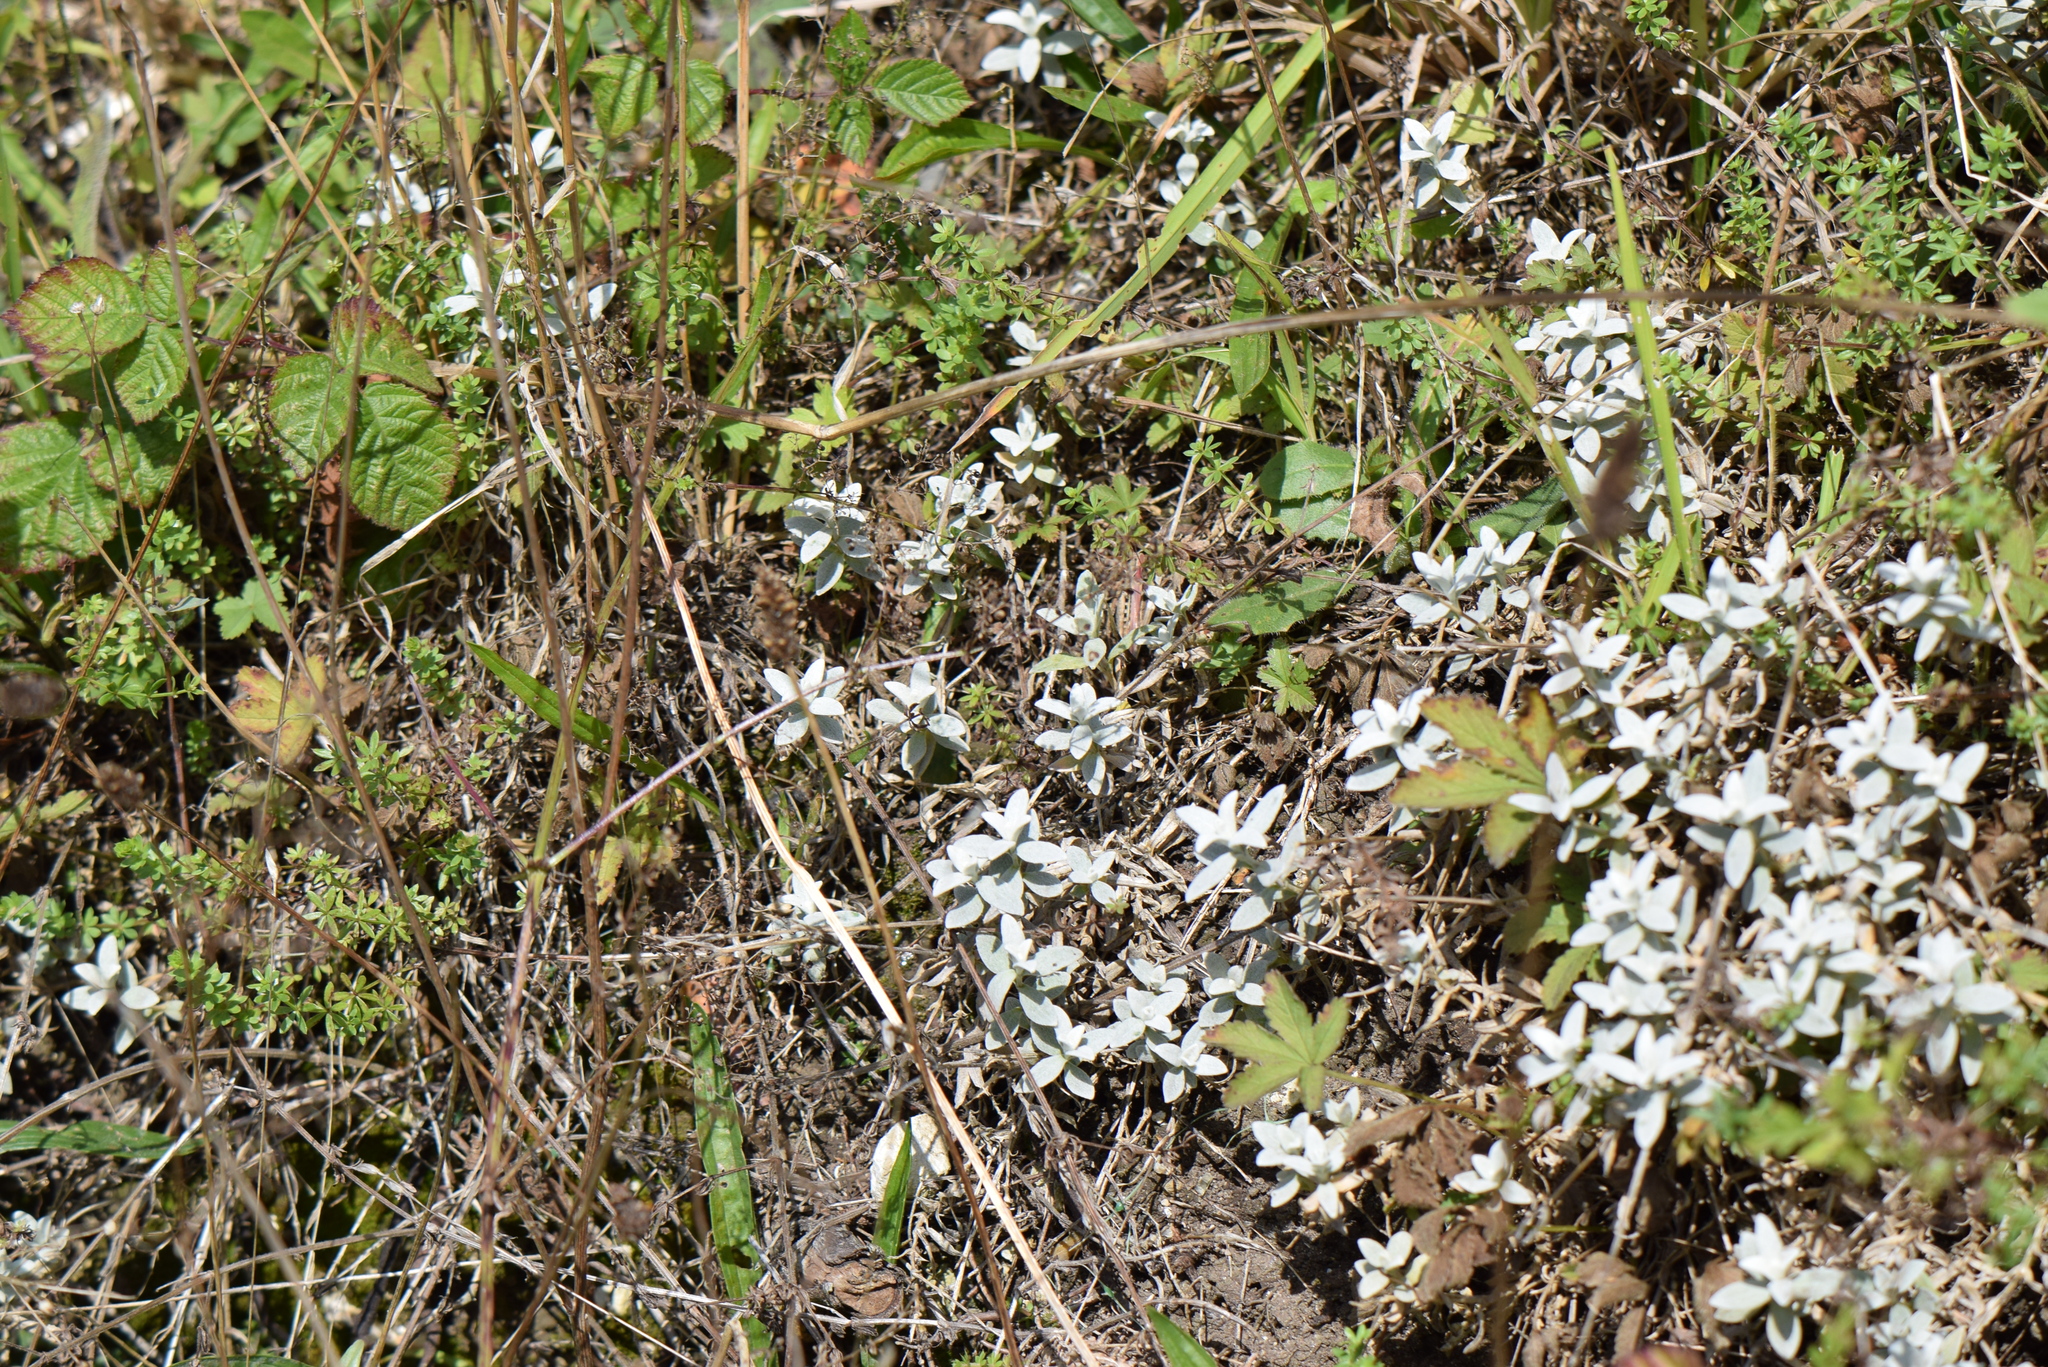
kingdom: Plantae
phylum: Tracheophyta
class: Magnoliopsida
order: Caryophyllales
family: Caryophyllaceae
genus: Cerastium
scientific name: Cerastium tomentosum
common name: Snow-in-summer
